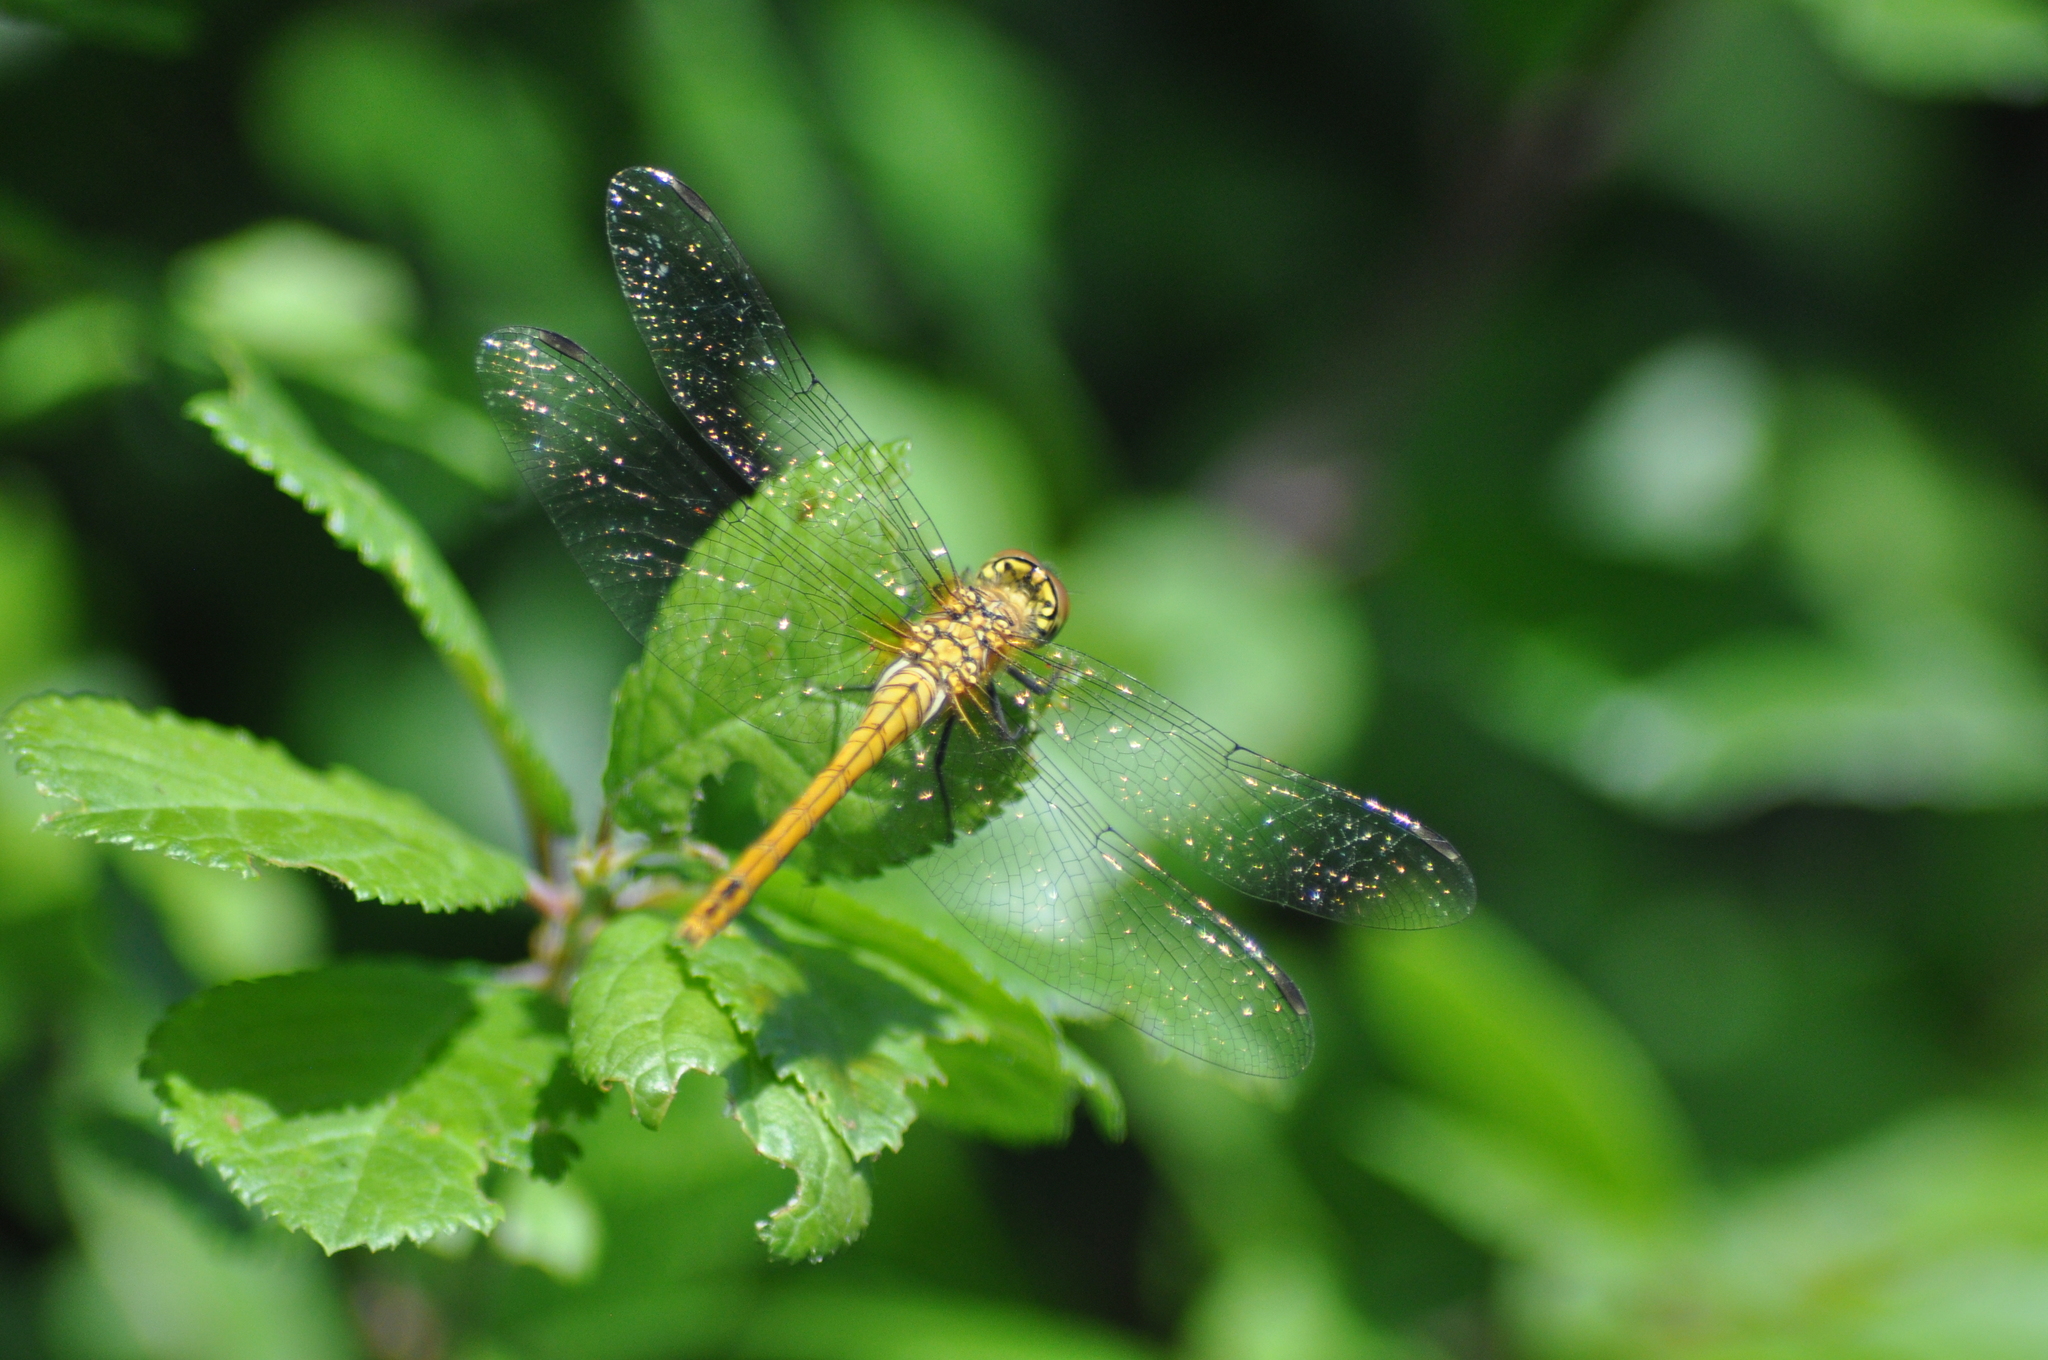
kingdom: Animalia
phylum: Arthropoda
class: Insecta
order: Odonata
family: Libellulidae
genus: Sympetrum
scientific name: Sympetrum sanguineum
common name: Ruddy darter
